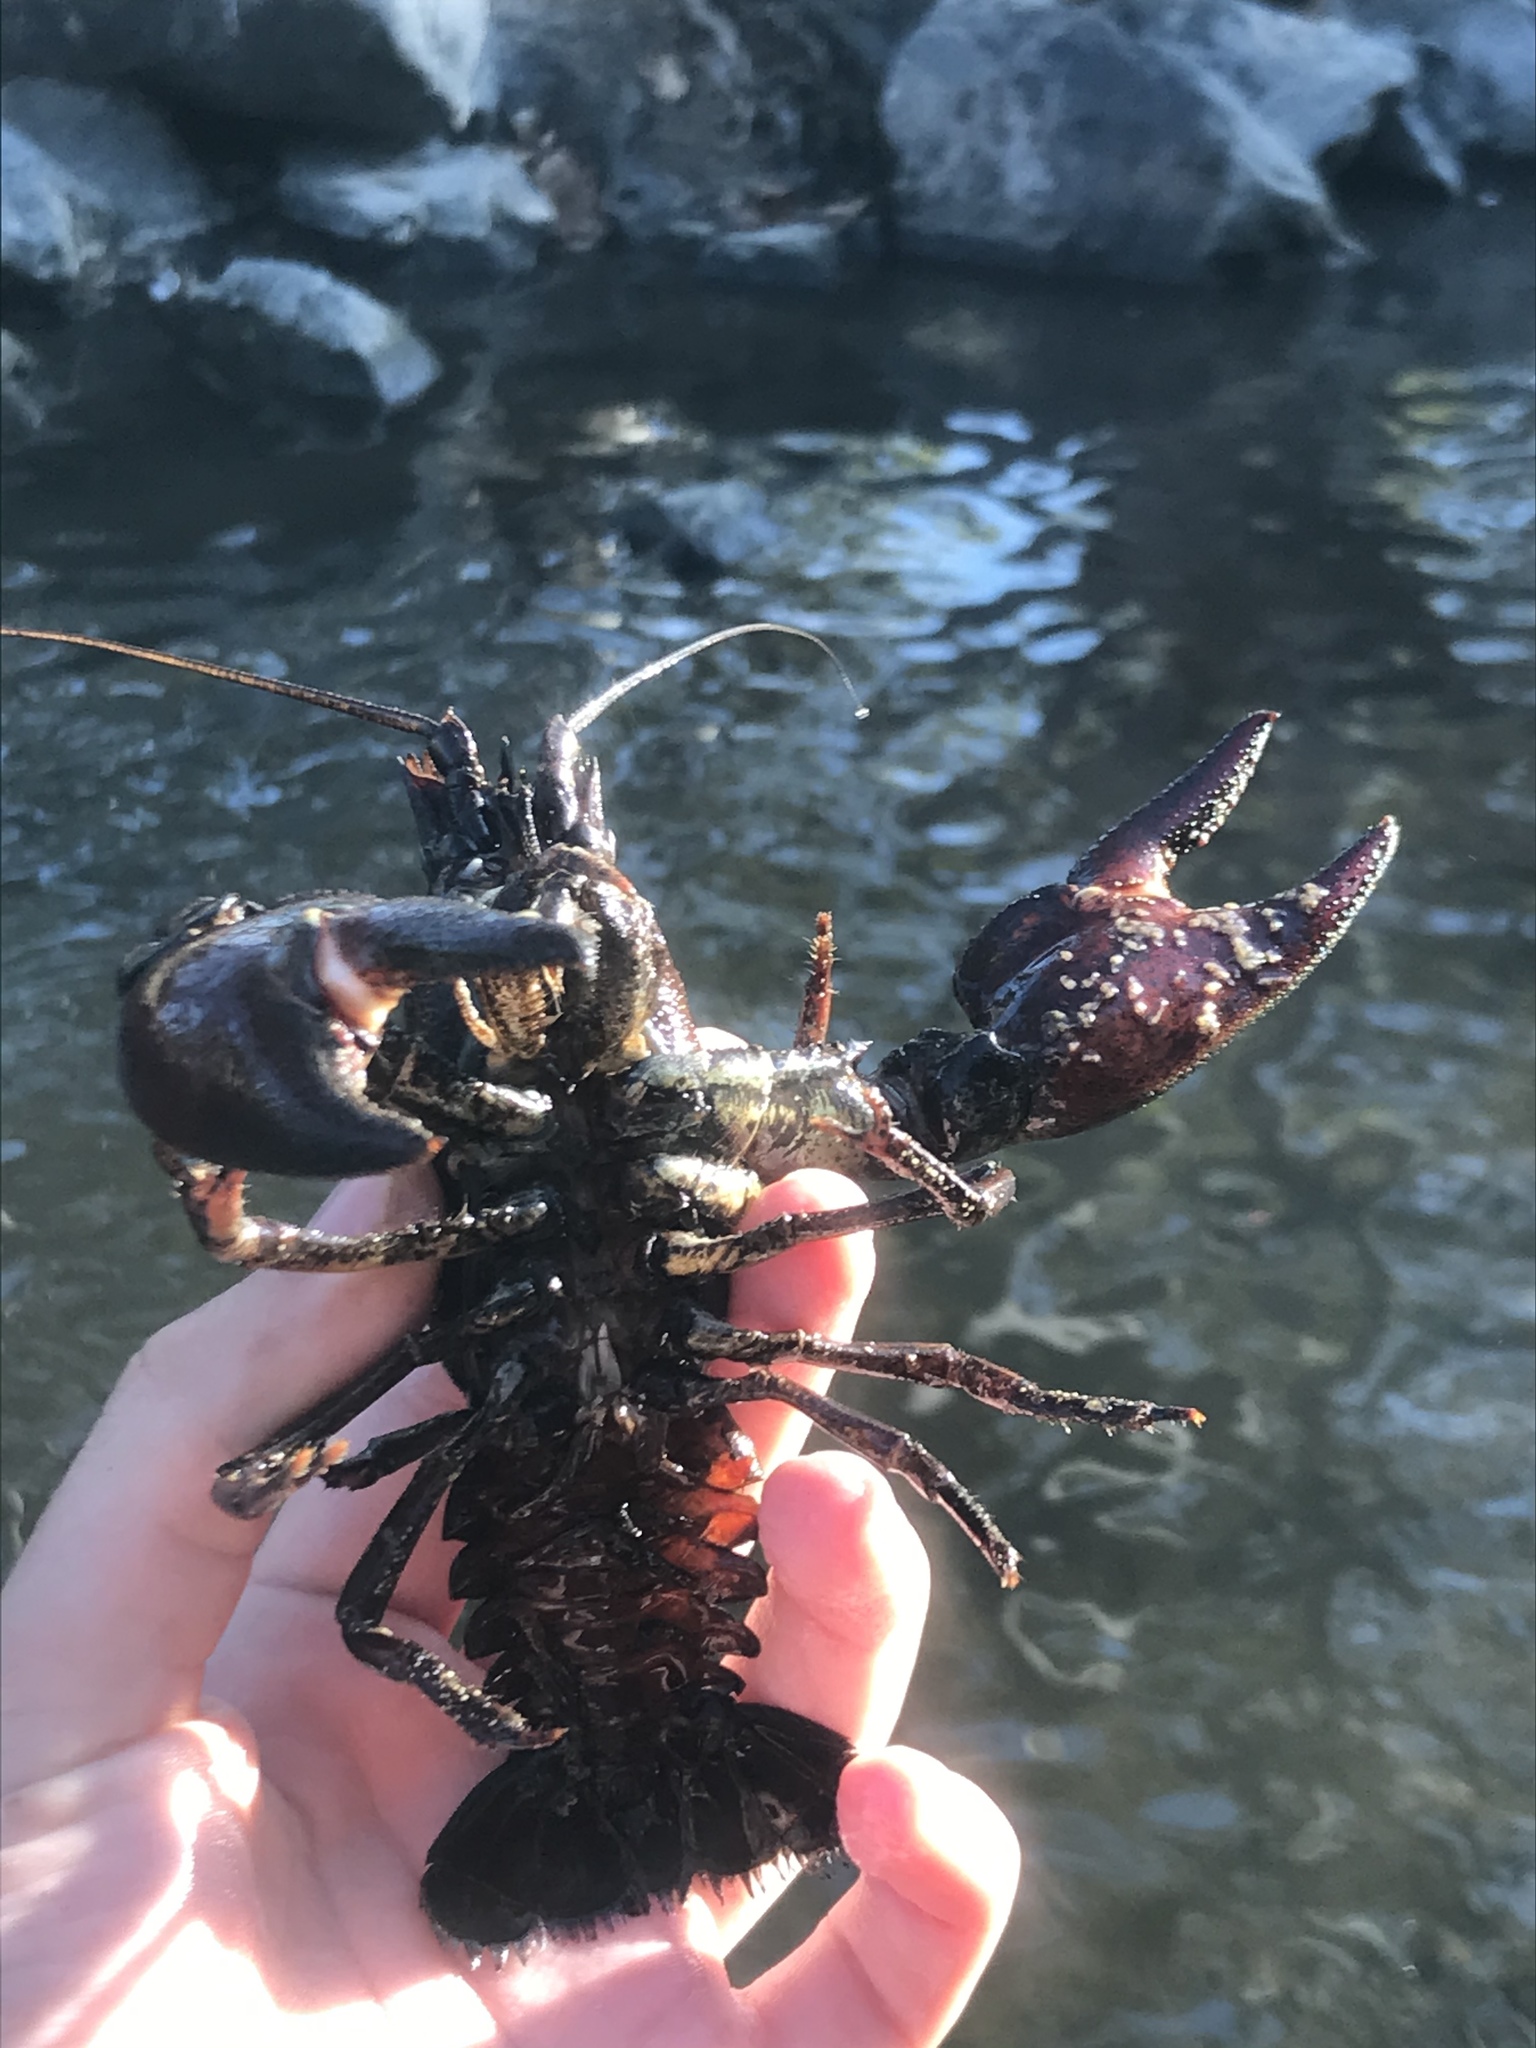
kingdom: Animalia
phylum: Arthropoda
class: Malacostraca
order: Decapoda
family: Astacidae
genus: Pacifastacus
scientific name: Pacifastacus leniusculus
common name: Signal crayfish
